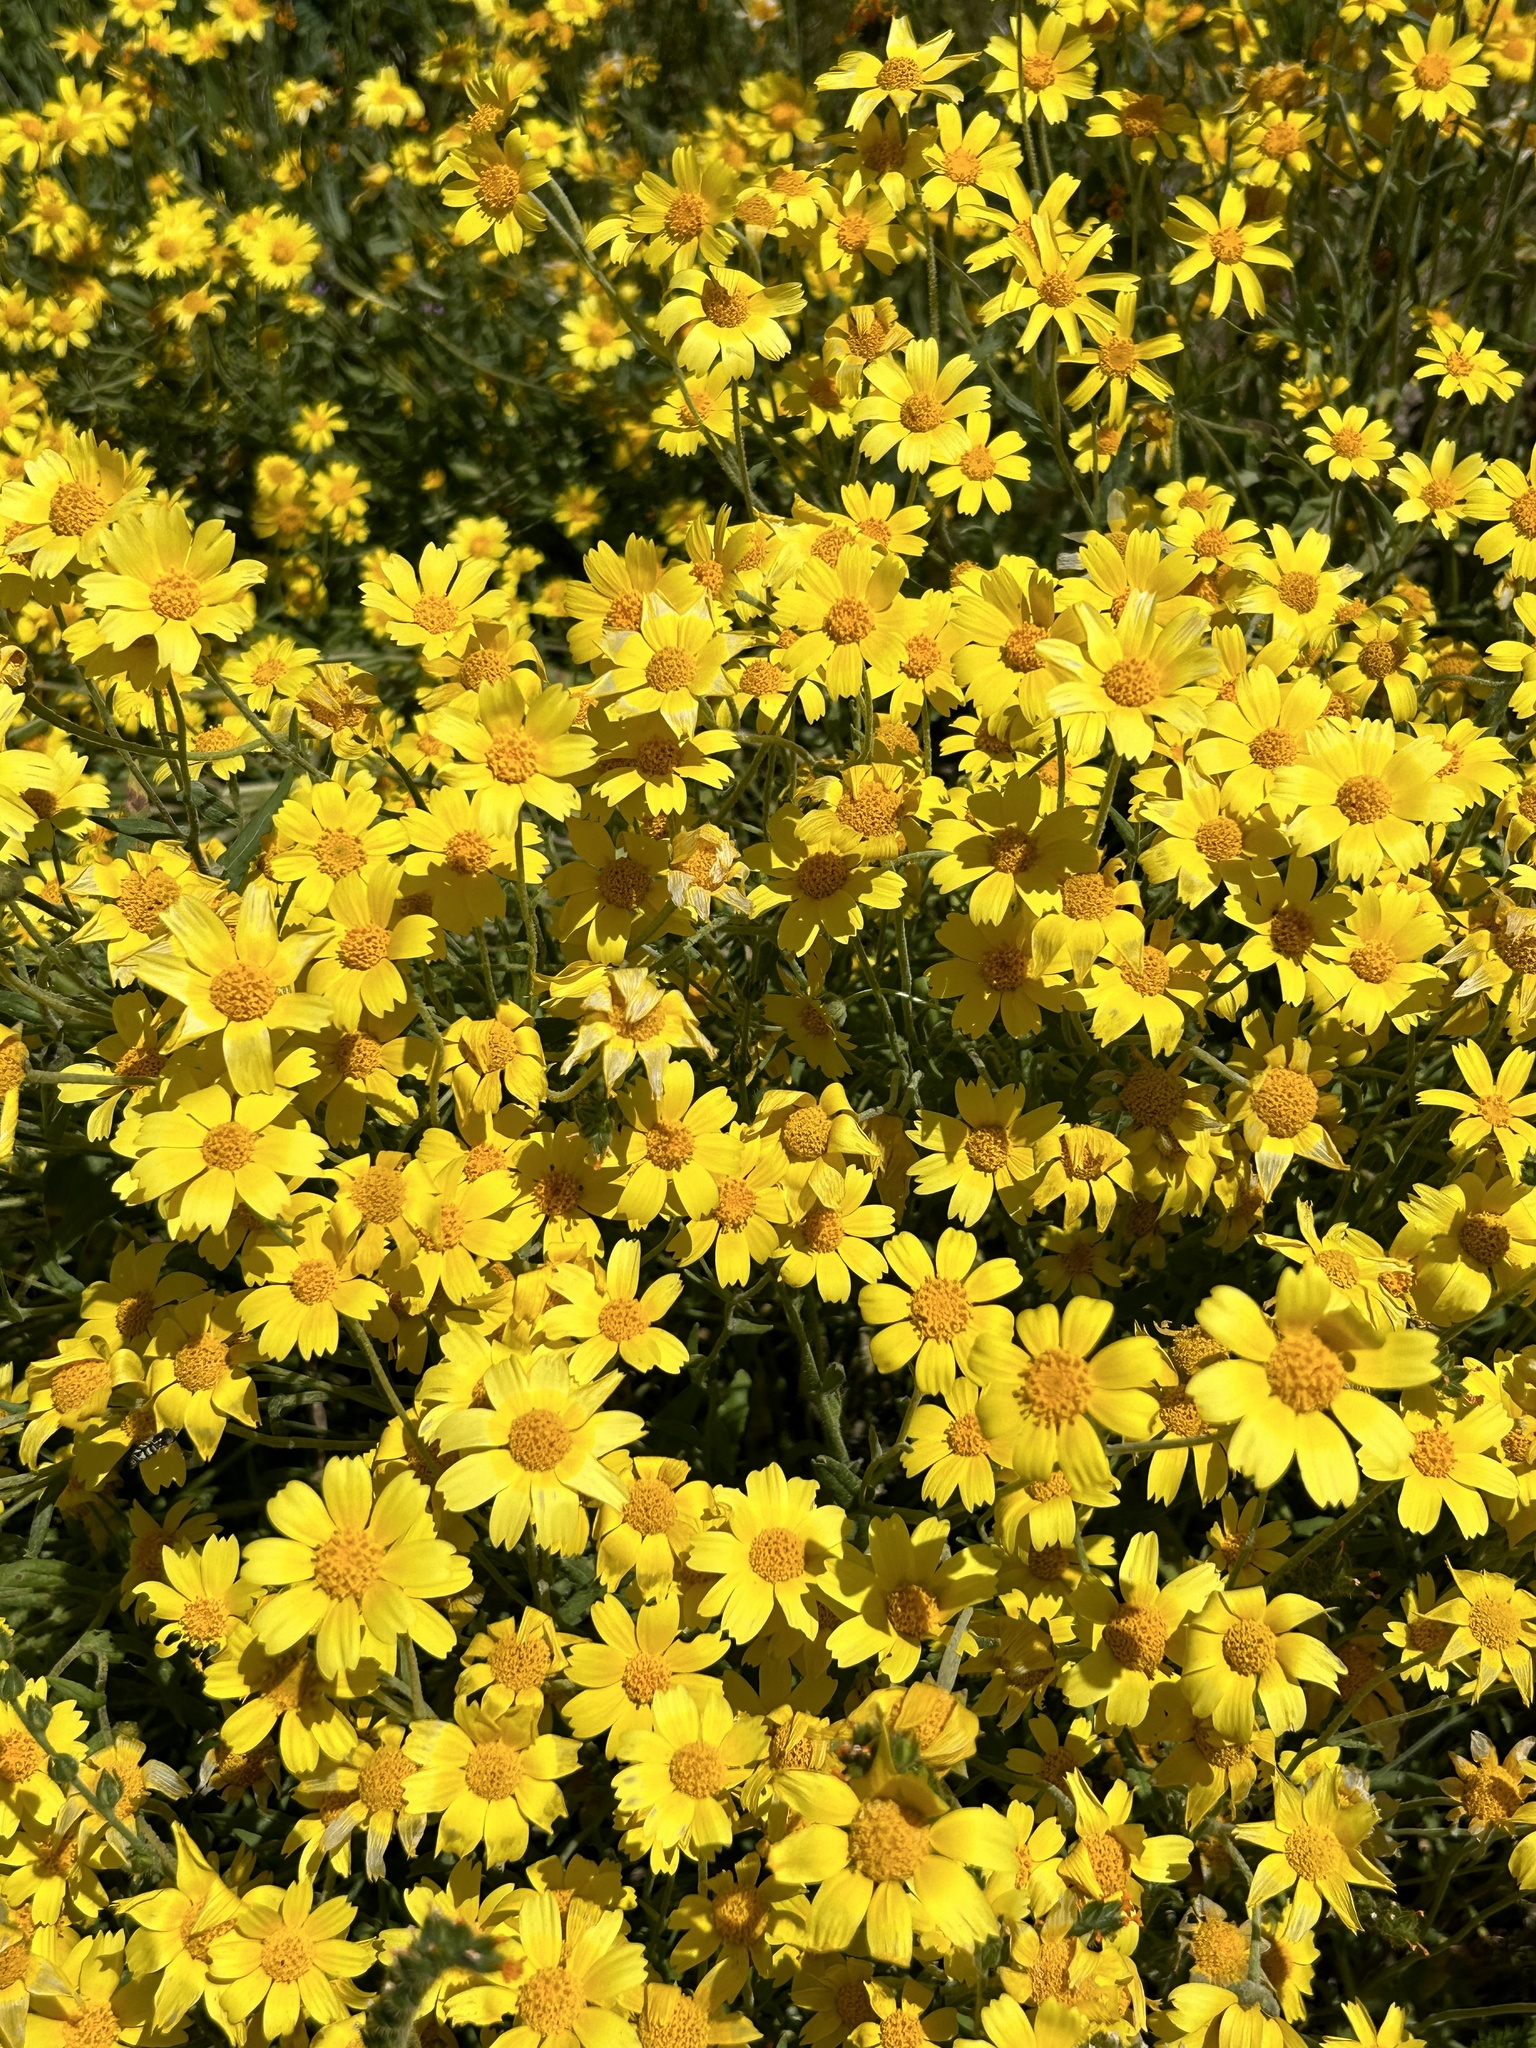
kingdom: Plantae
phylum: Tracheophyta
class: Magnoliopsida
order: Asterales
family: Asteraceae
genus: Monolopia
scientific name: Monolopia lanceolata
